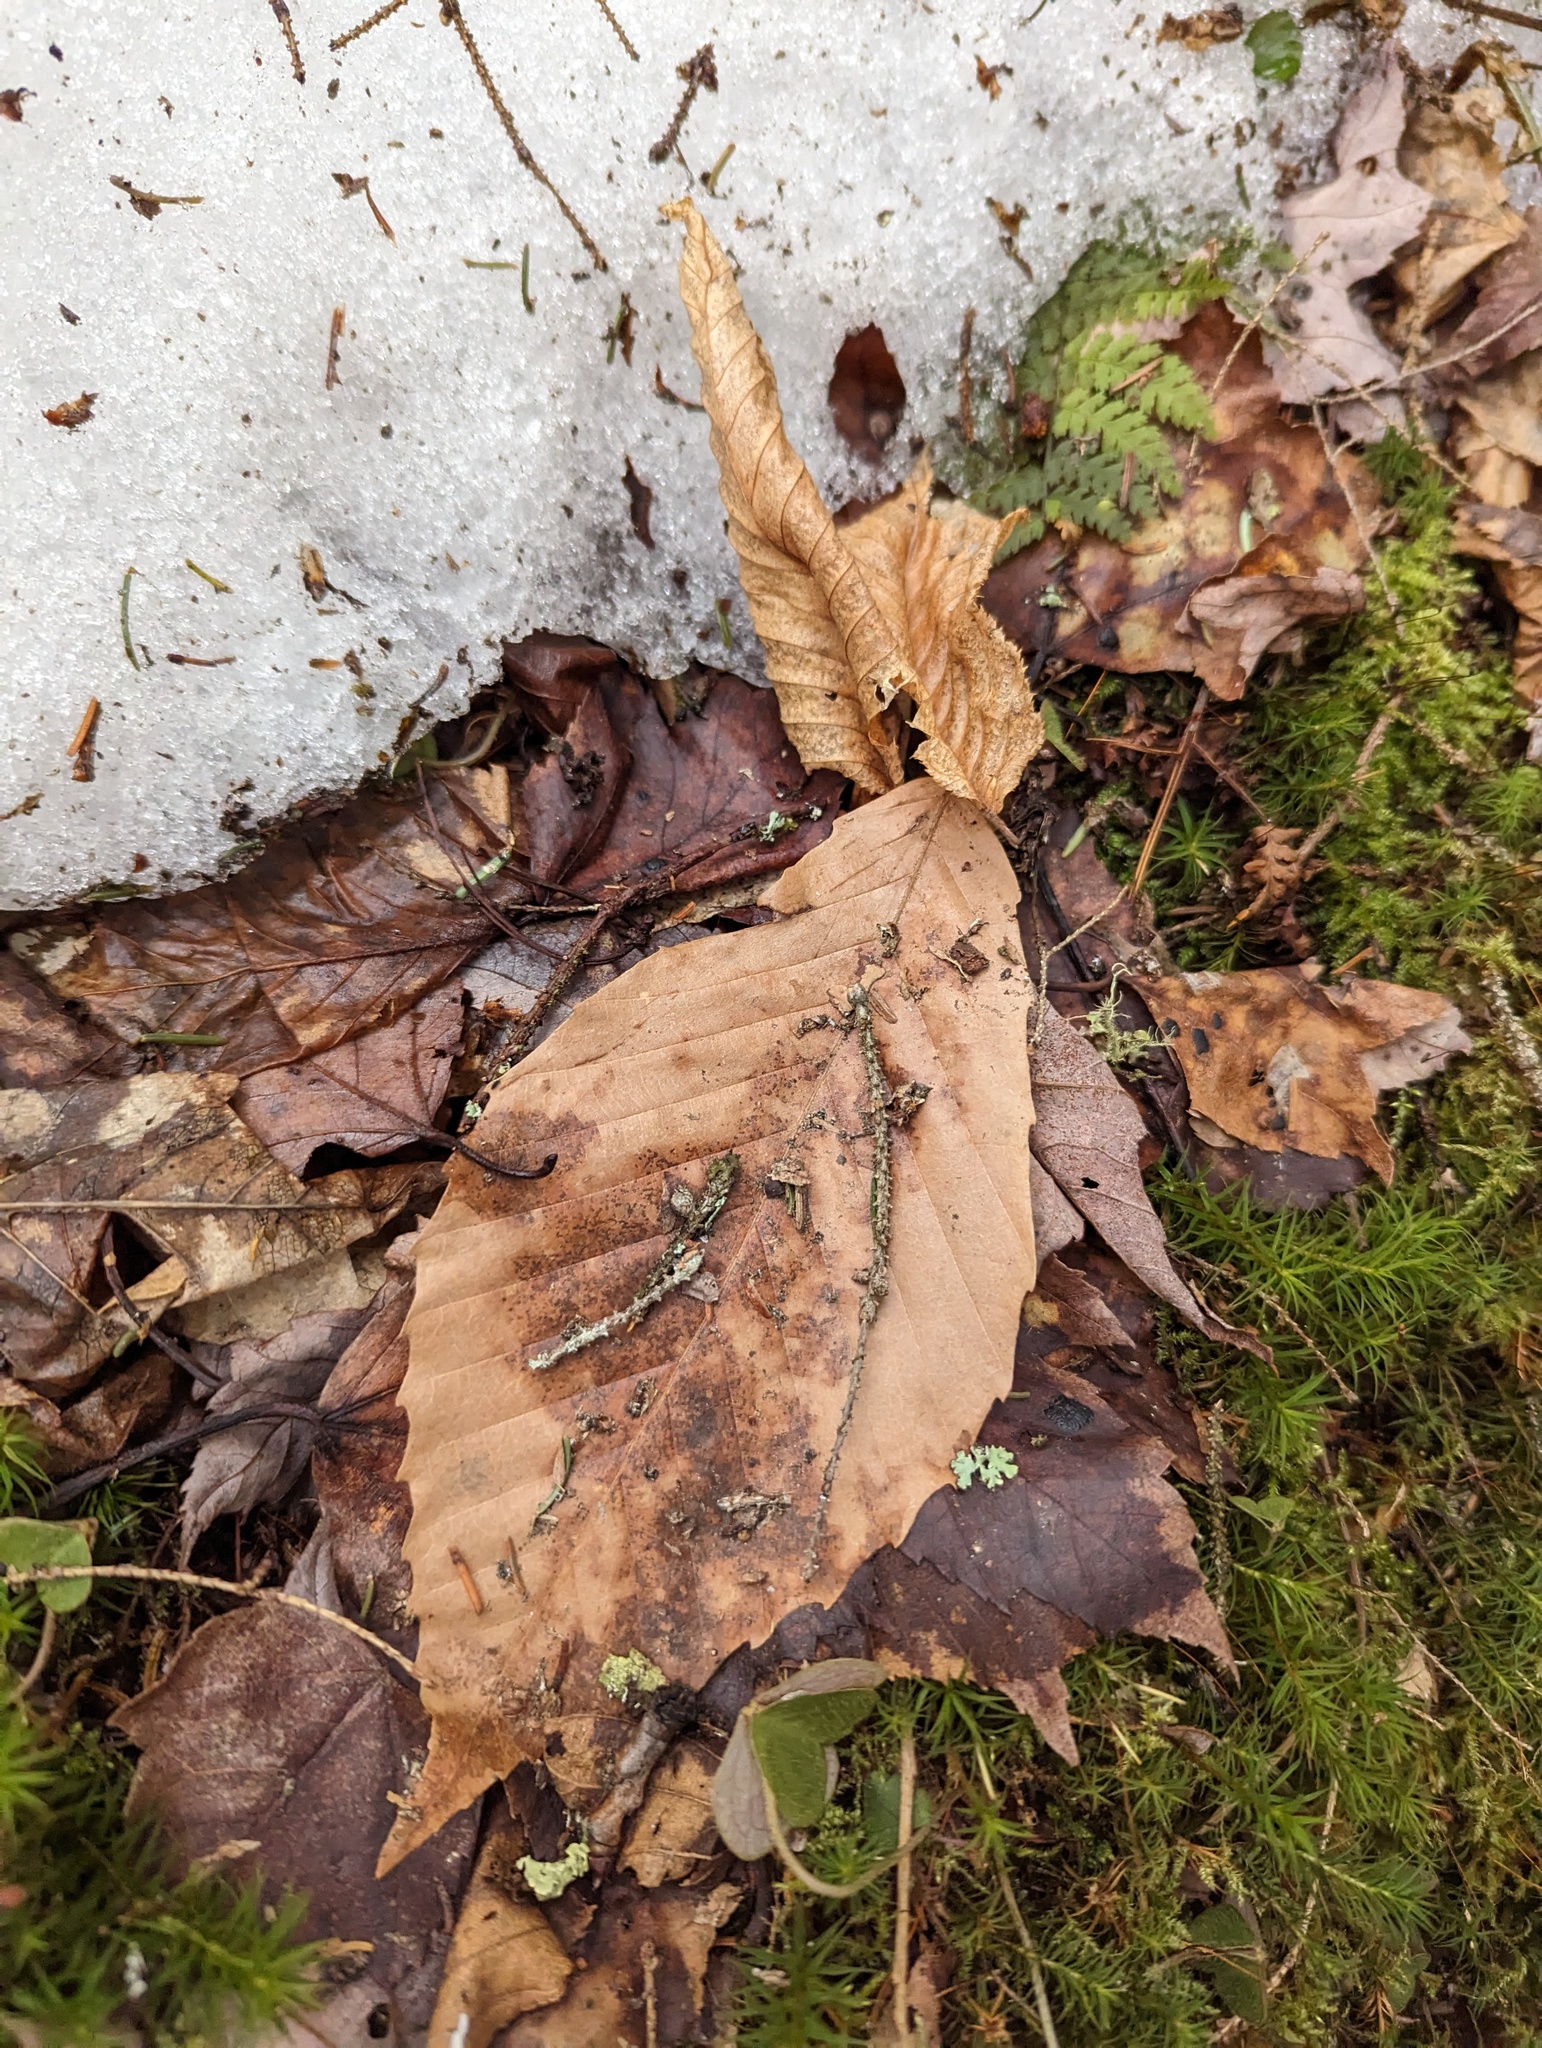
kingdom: Plantae
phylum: Tracheophyta
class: Magnoliopsida
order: Fagales
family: Fagaceae
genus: Fagus
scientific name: Fagus grandifolia
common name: American beech
